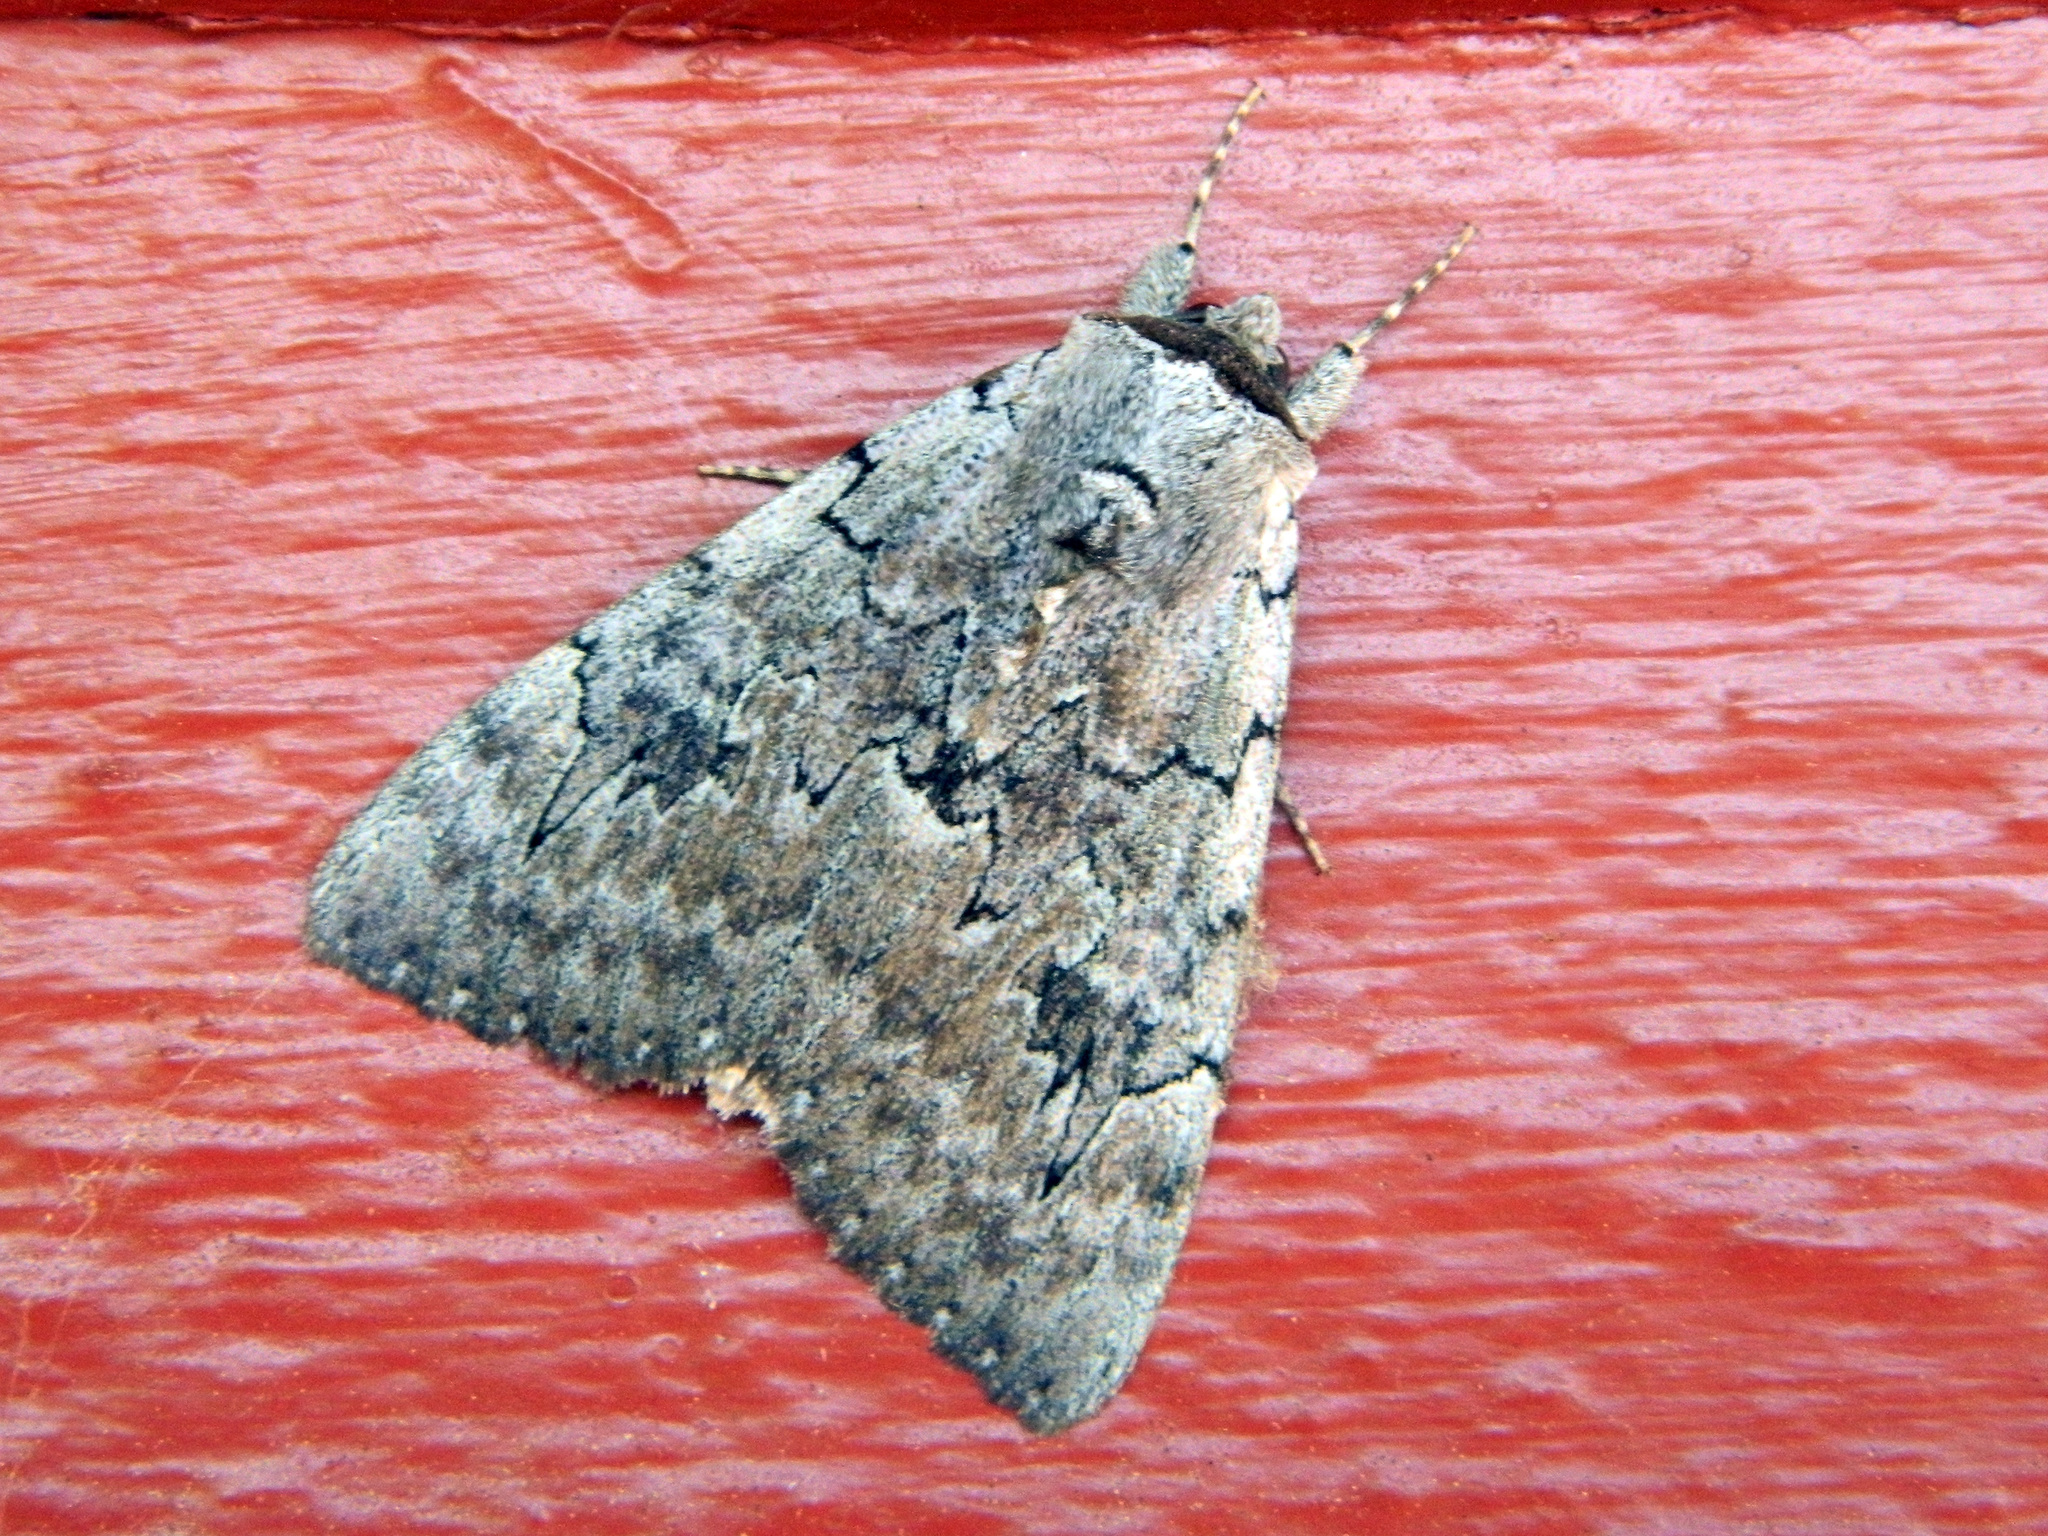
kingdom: Animalia
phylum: Arthropoda
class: Insecta
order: Lepidoptera
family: Erebidae
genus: Catocala
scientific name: Catocala concumbens
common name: Pink underwing
